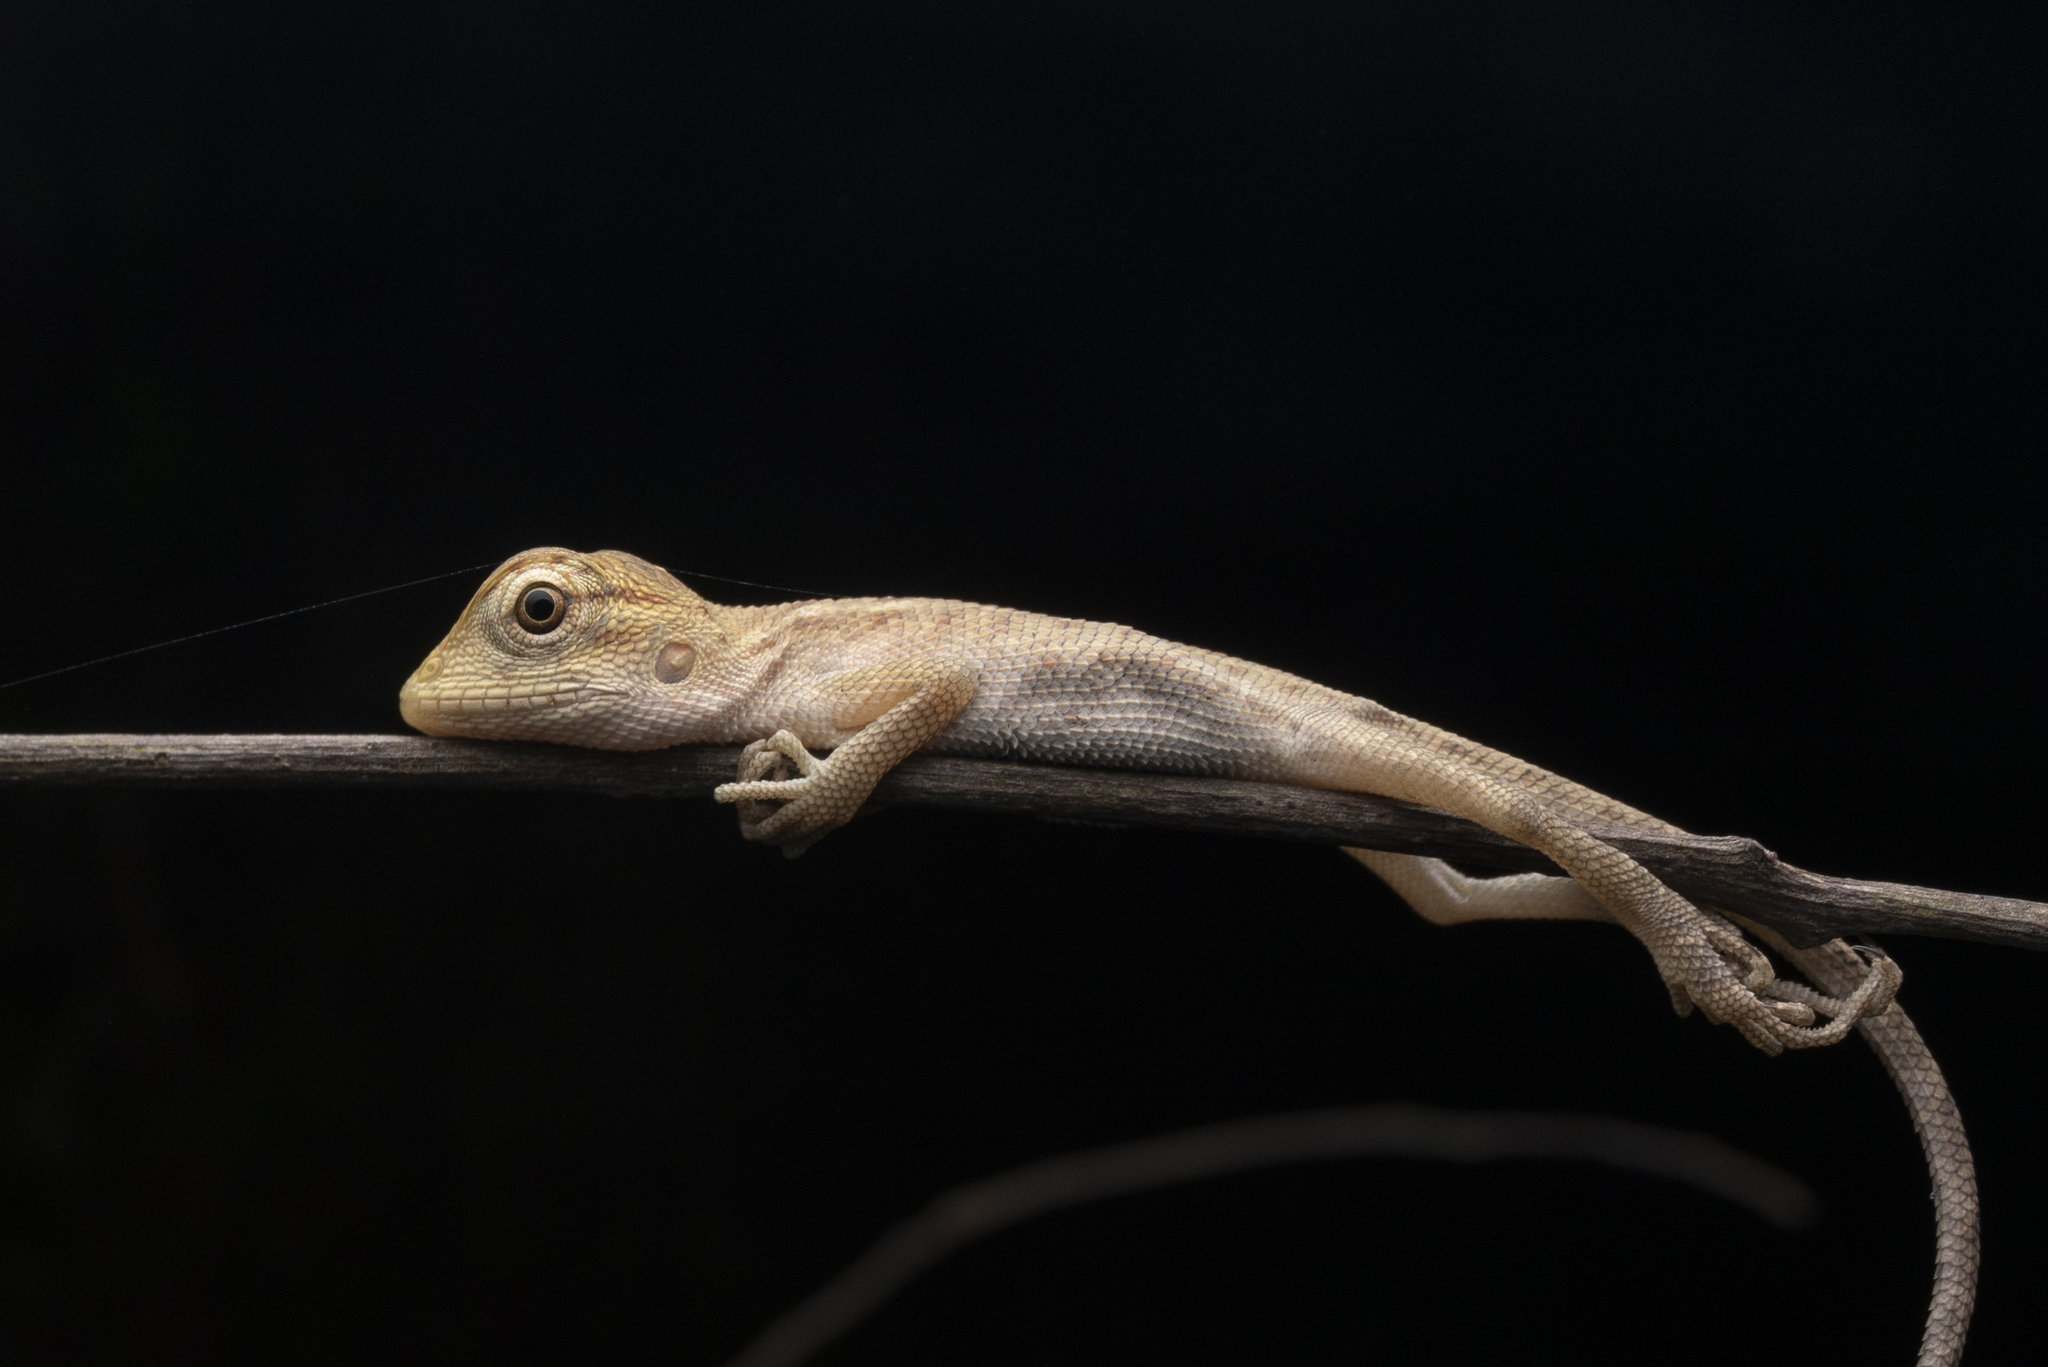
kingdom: Animalia
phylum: Chordata
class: Squamata
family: Agamidae
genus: Calotes
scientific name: Calotes versicolor
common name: Oriental garden lizard
